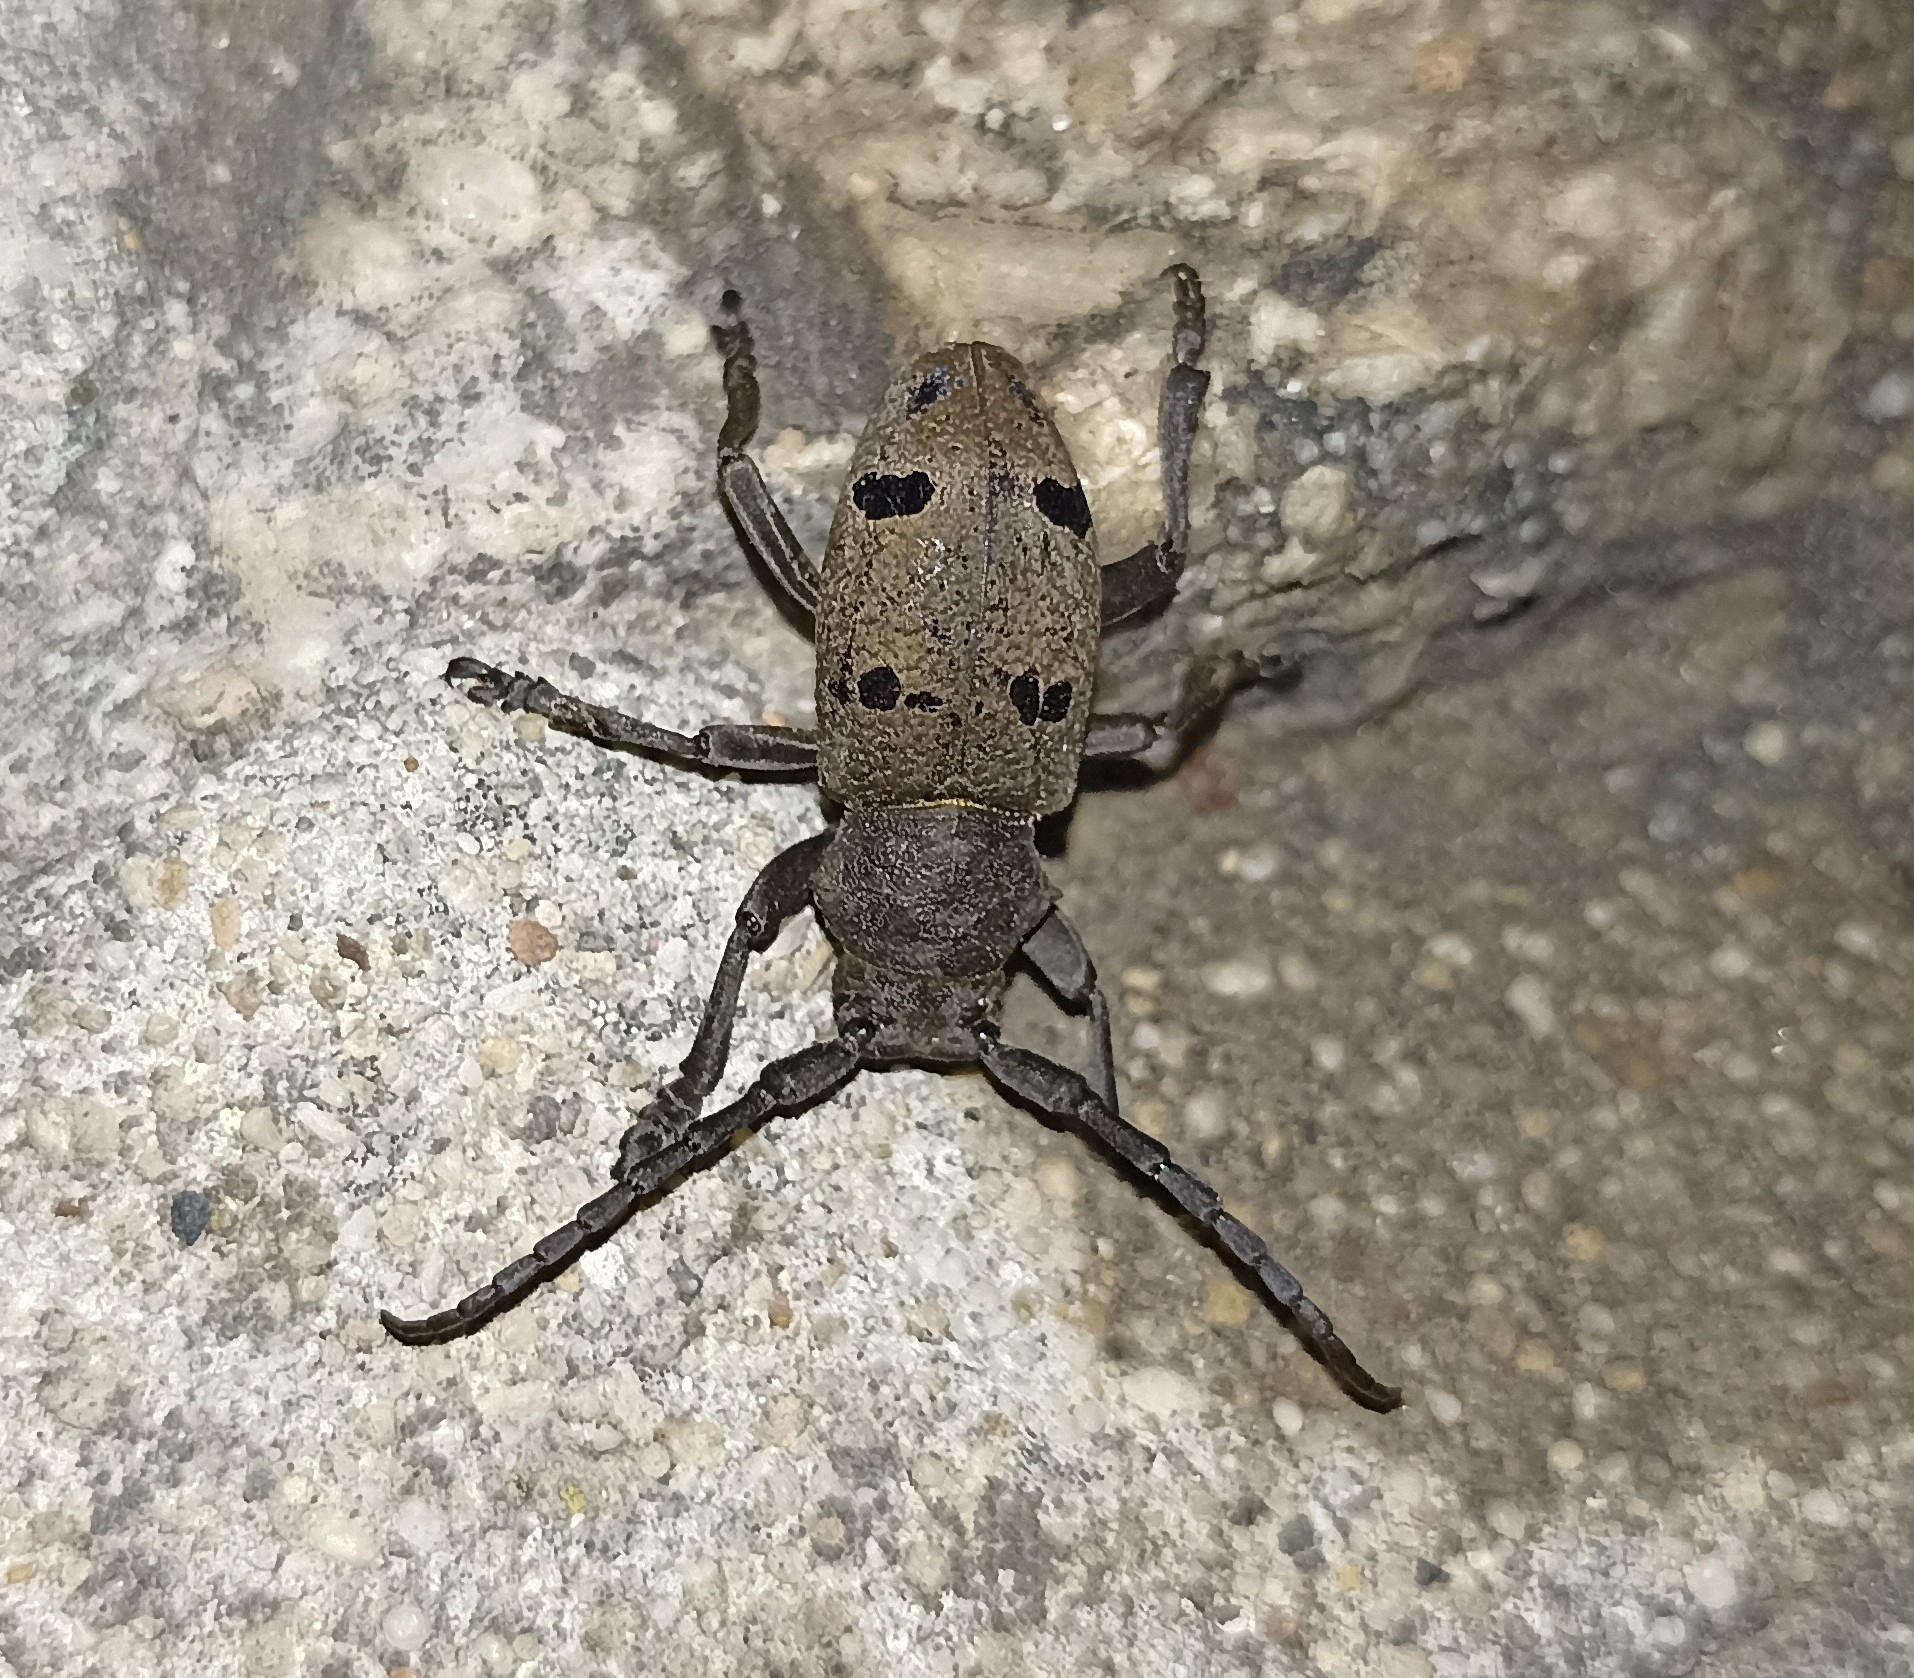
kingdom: Animalia
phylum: Arthropoda
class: Insecta
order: Coleoptera
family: Cerambycidae
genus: Herophila
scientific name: Herophila tristis
